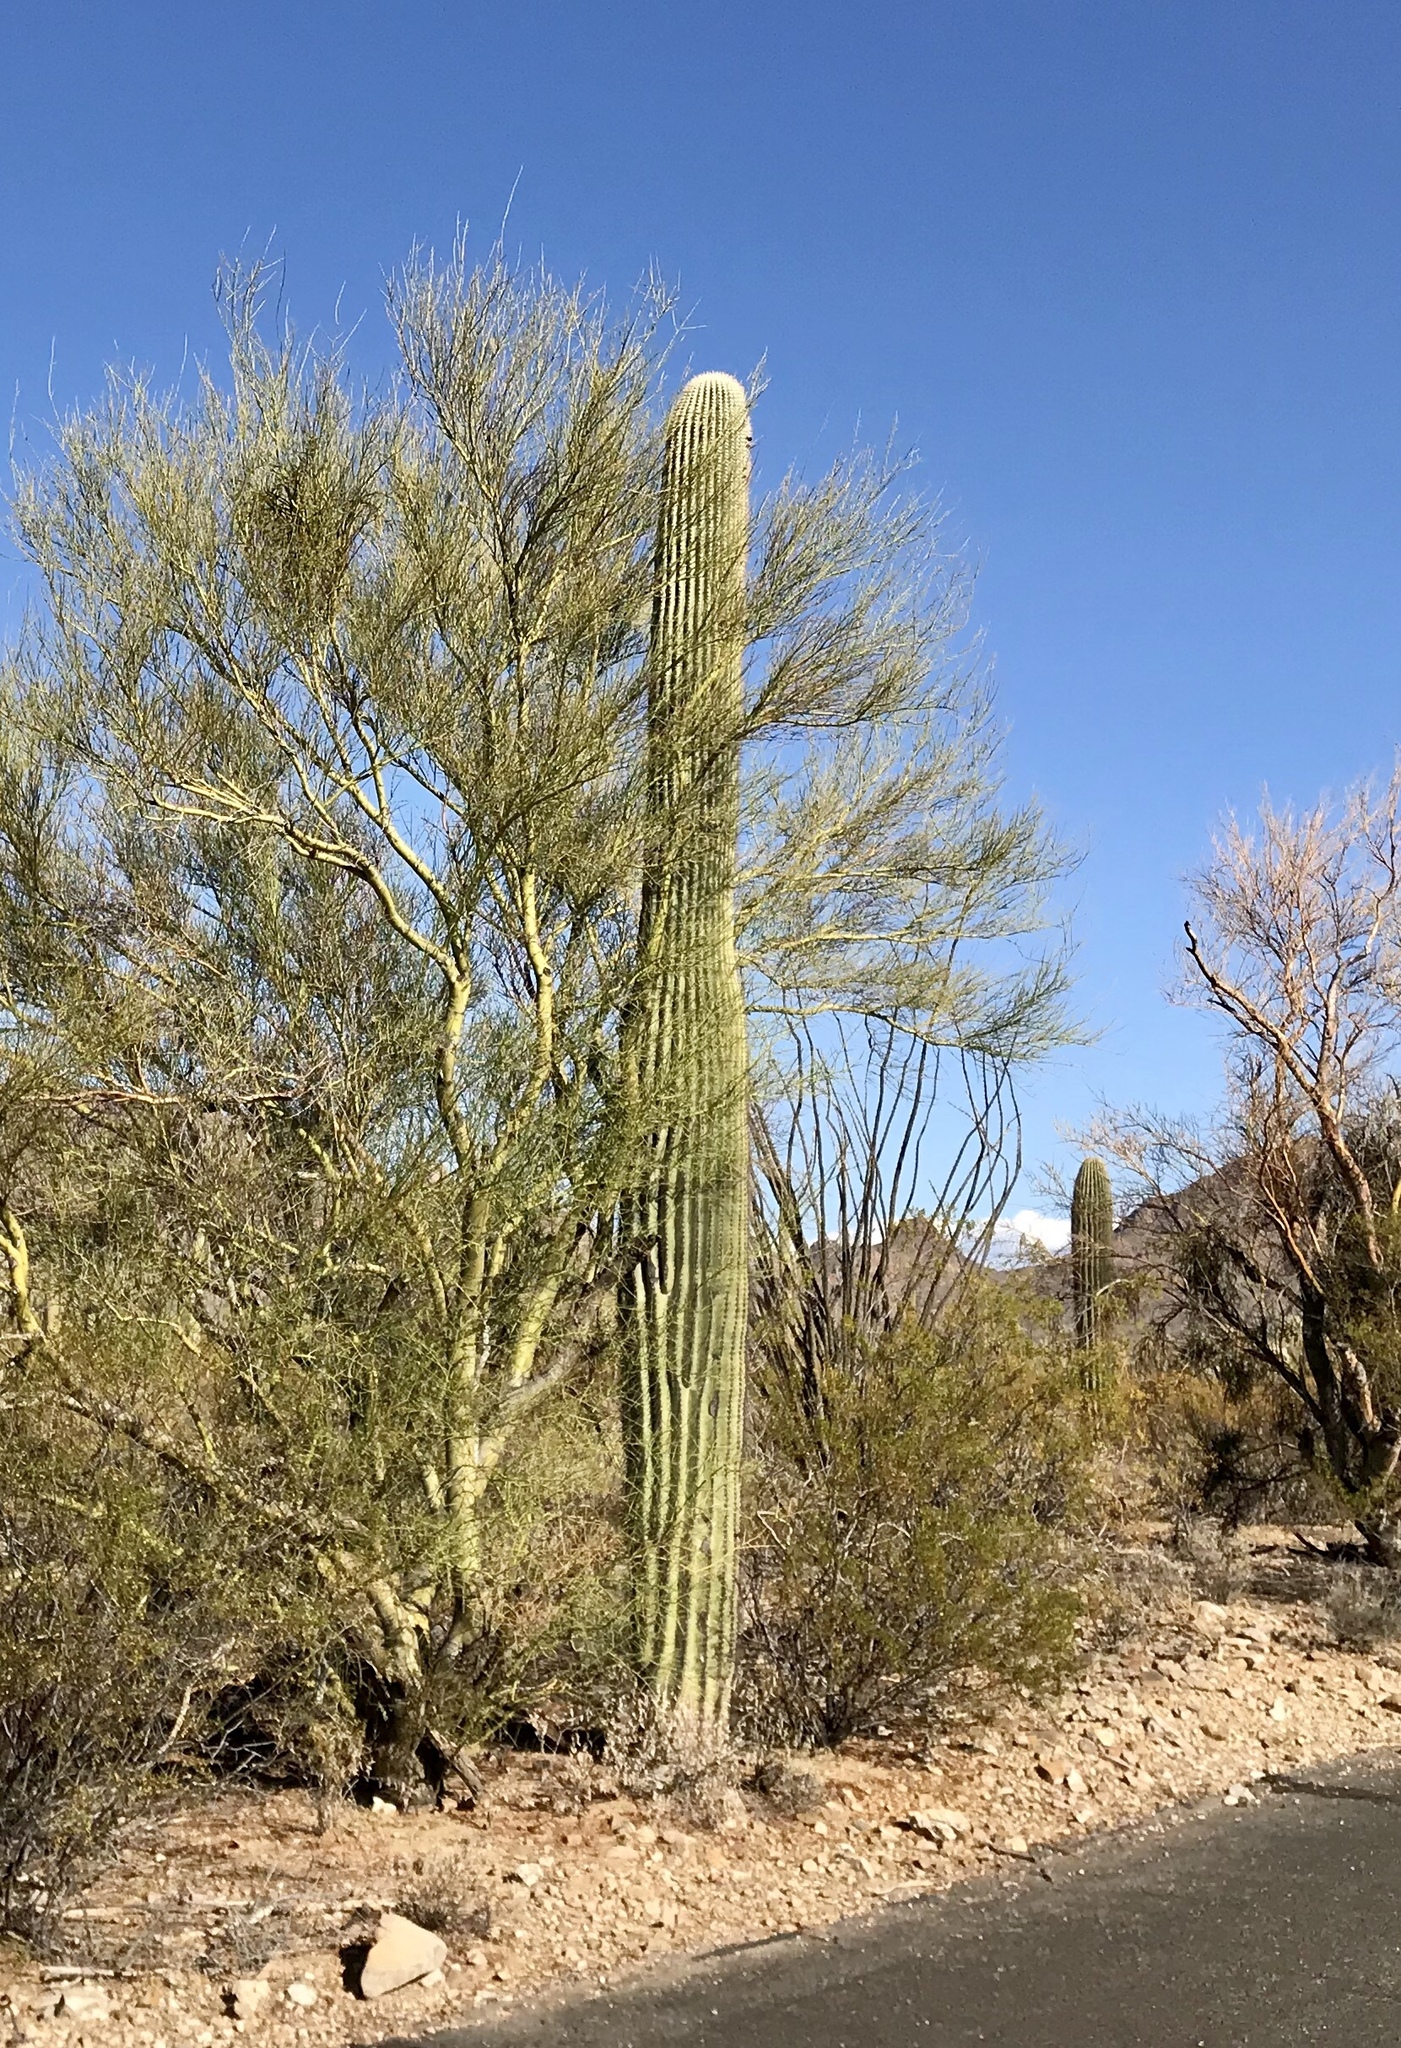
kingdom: Plantae
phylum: Tracheophyta
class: Magnoliopsida
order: Caryophyllales
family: Cactaceae
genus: Carnegiea
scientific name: Carnegiea gigantea
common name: Saguaro
